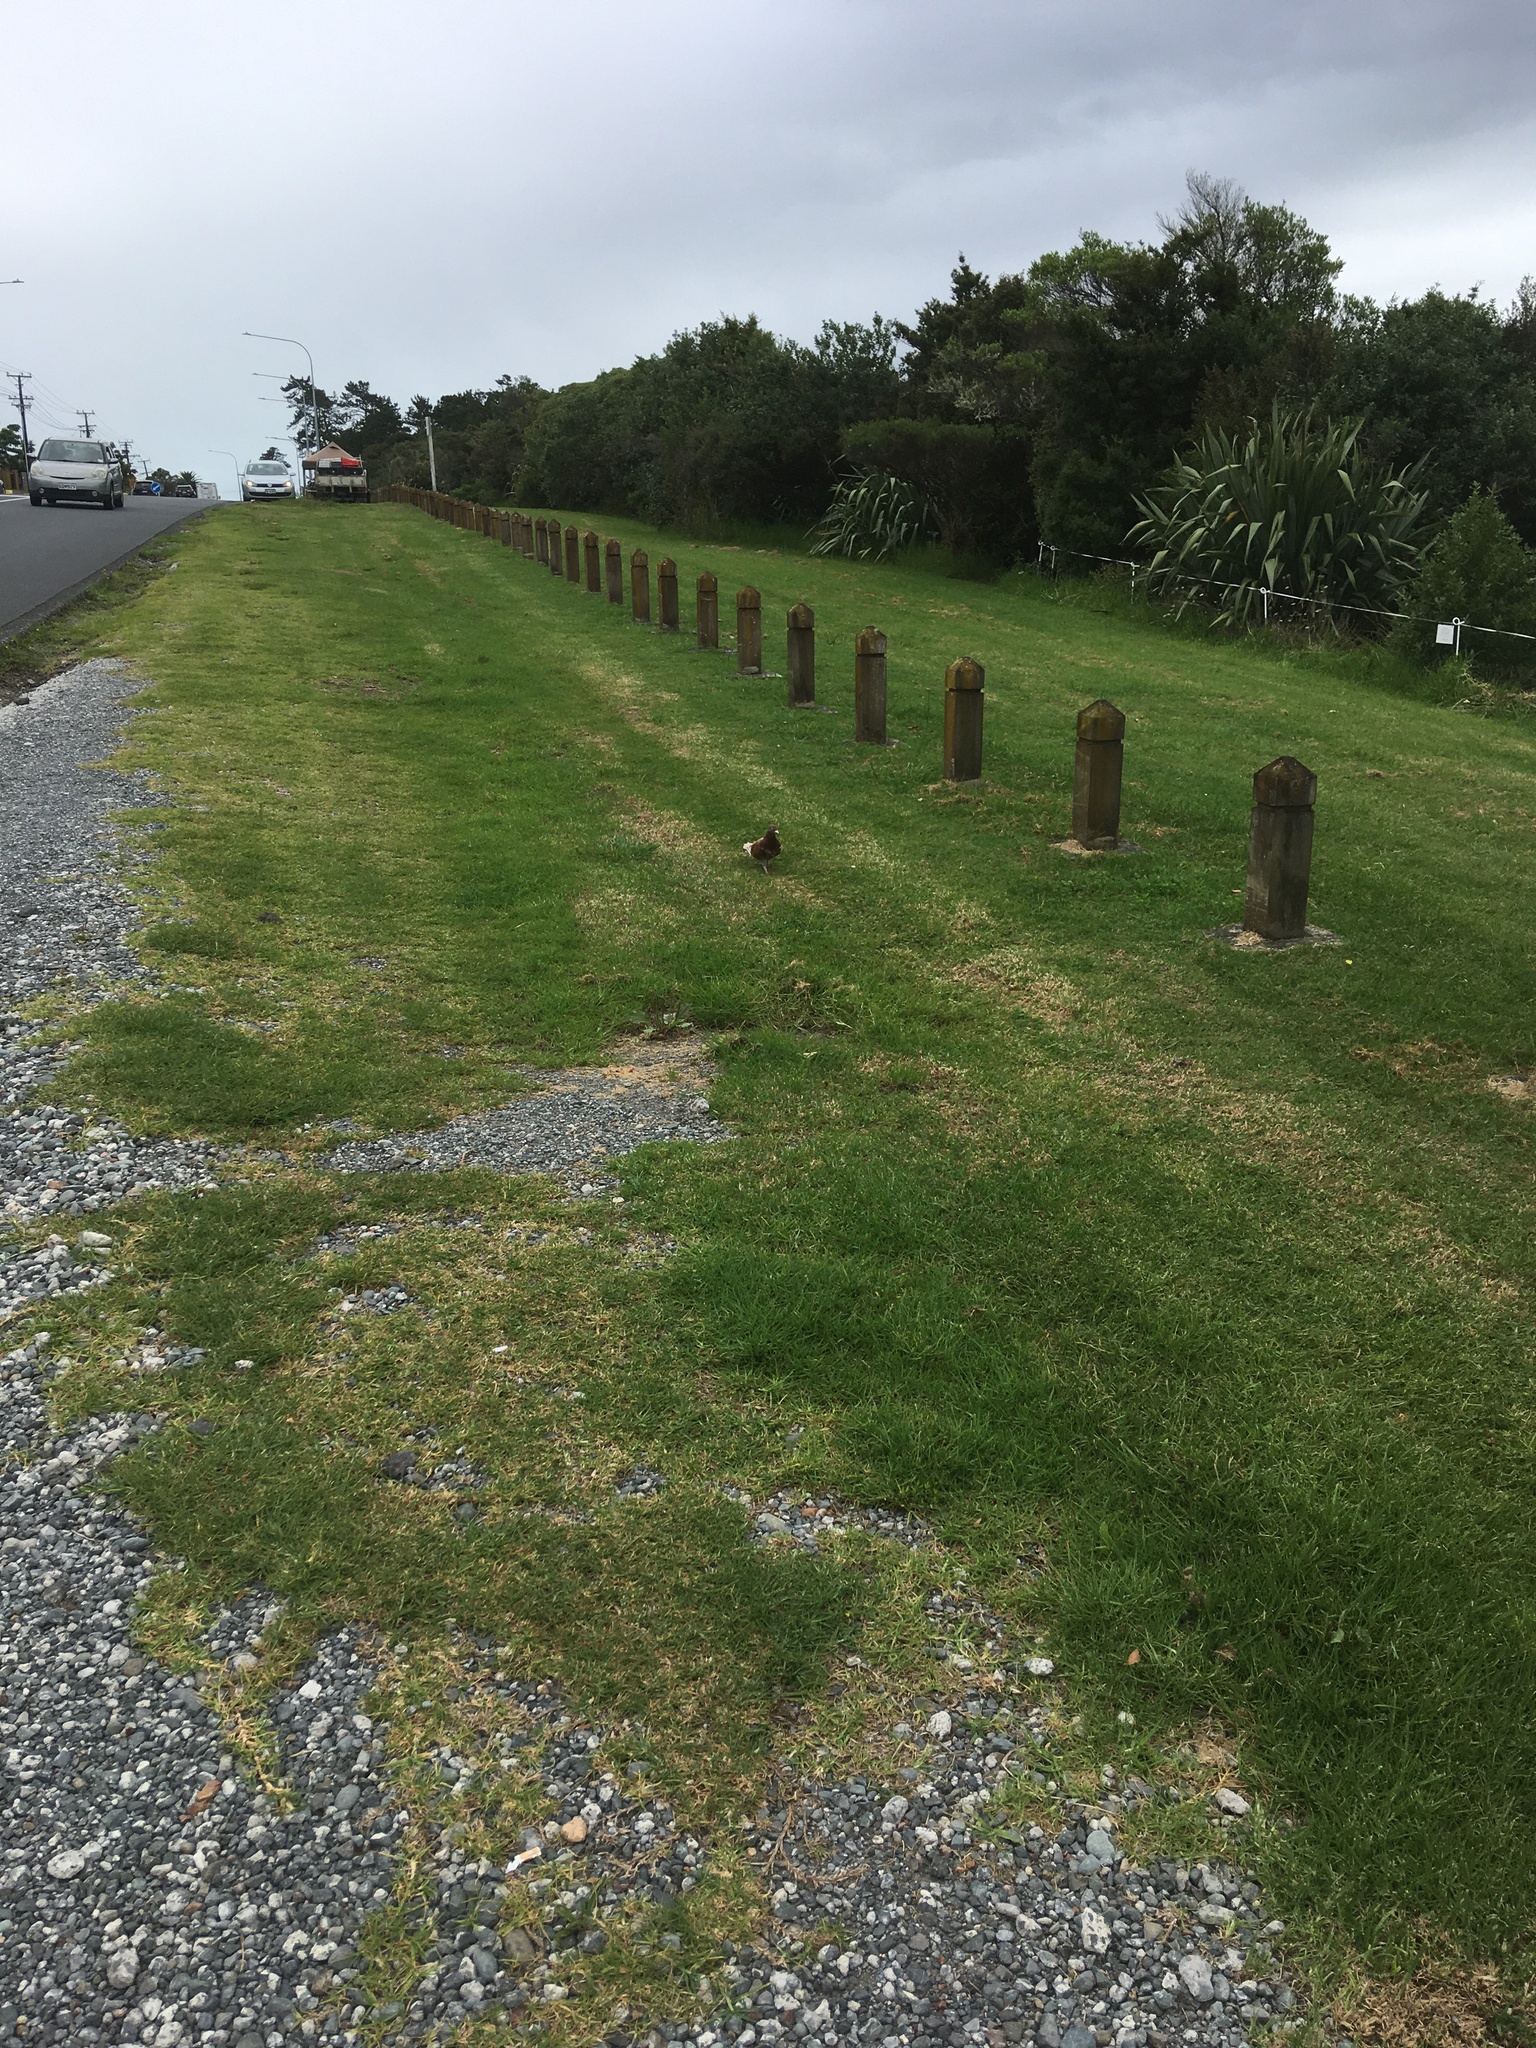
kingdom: Animalia
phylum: Chordata
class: Aves
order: Columbiformes
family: Columbidae
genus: Columba
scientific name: Columba livia
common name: Rock pigeon
